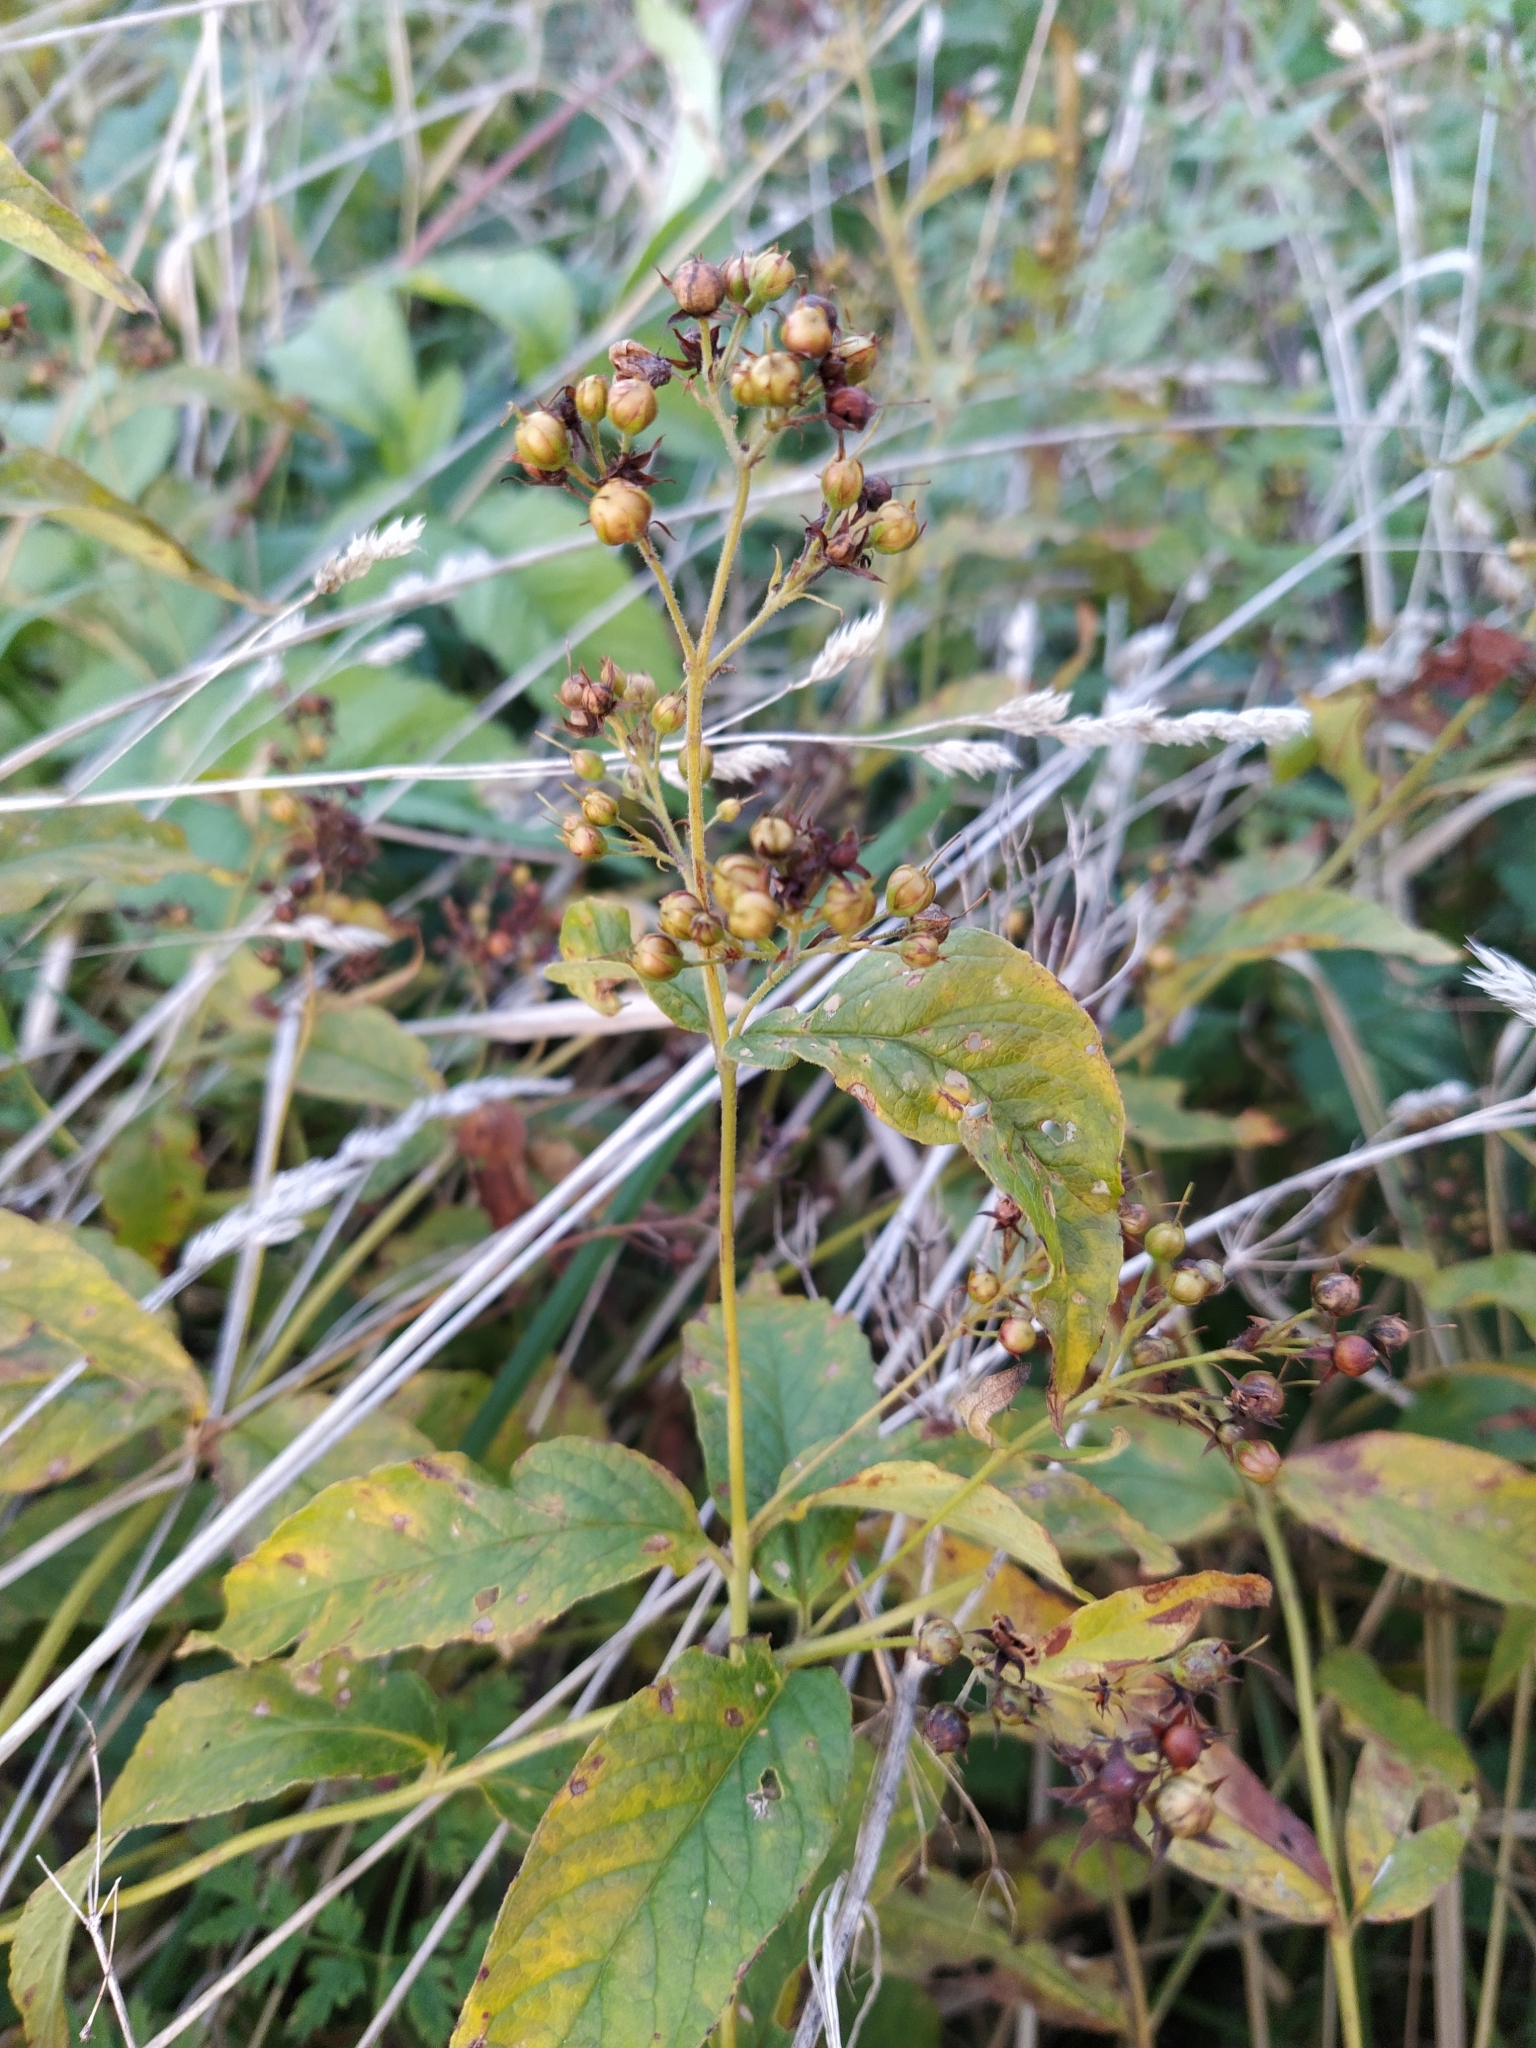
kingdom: Plantae
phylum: Tracheophyta
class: Magnoliopsida
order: Ericales
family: Primulaceae
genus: Lysimachia
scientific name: Lysimachia vulgaris
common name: Yellow loosestrife
